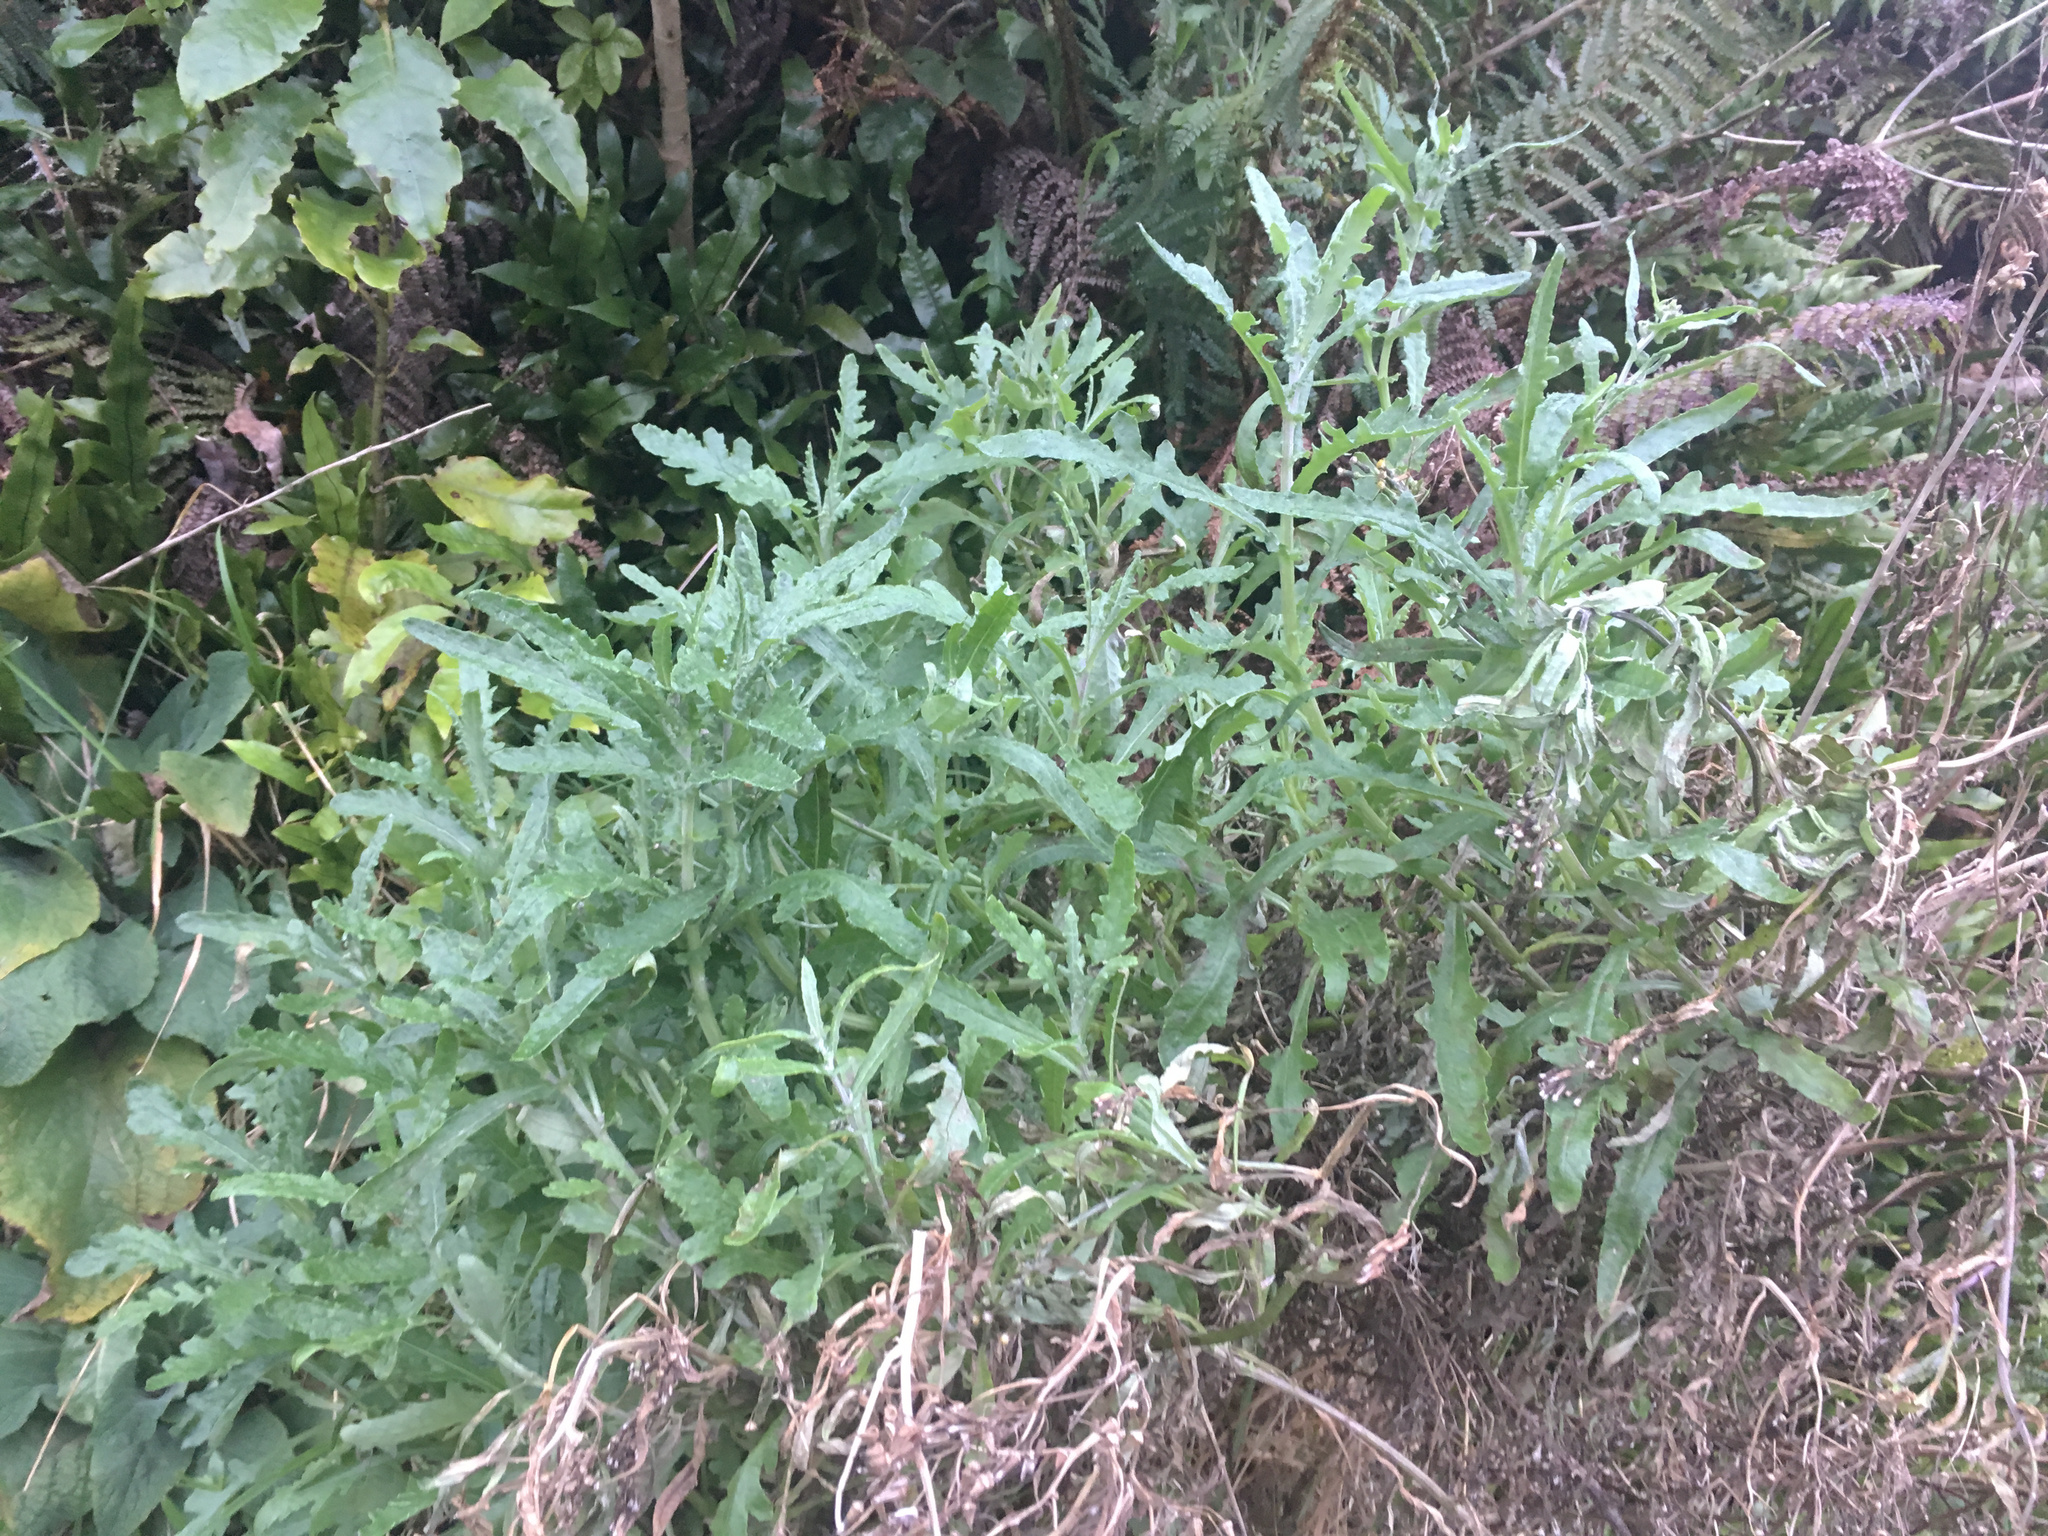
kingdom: Plantae
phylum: Tracheophyta
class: Magnoliopsida
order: Asterales
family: Asteraceae
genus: Senecio
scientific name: Senecio glomeratus
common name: Cutleaf burnweed
